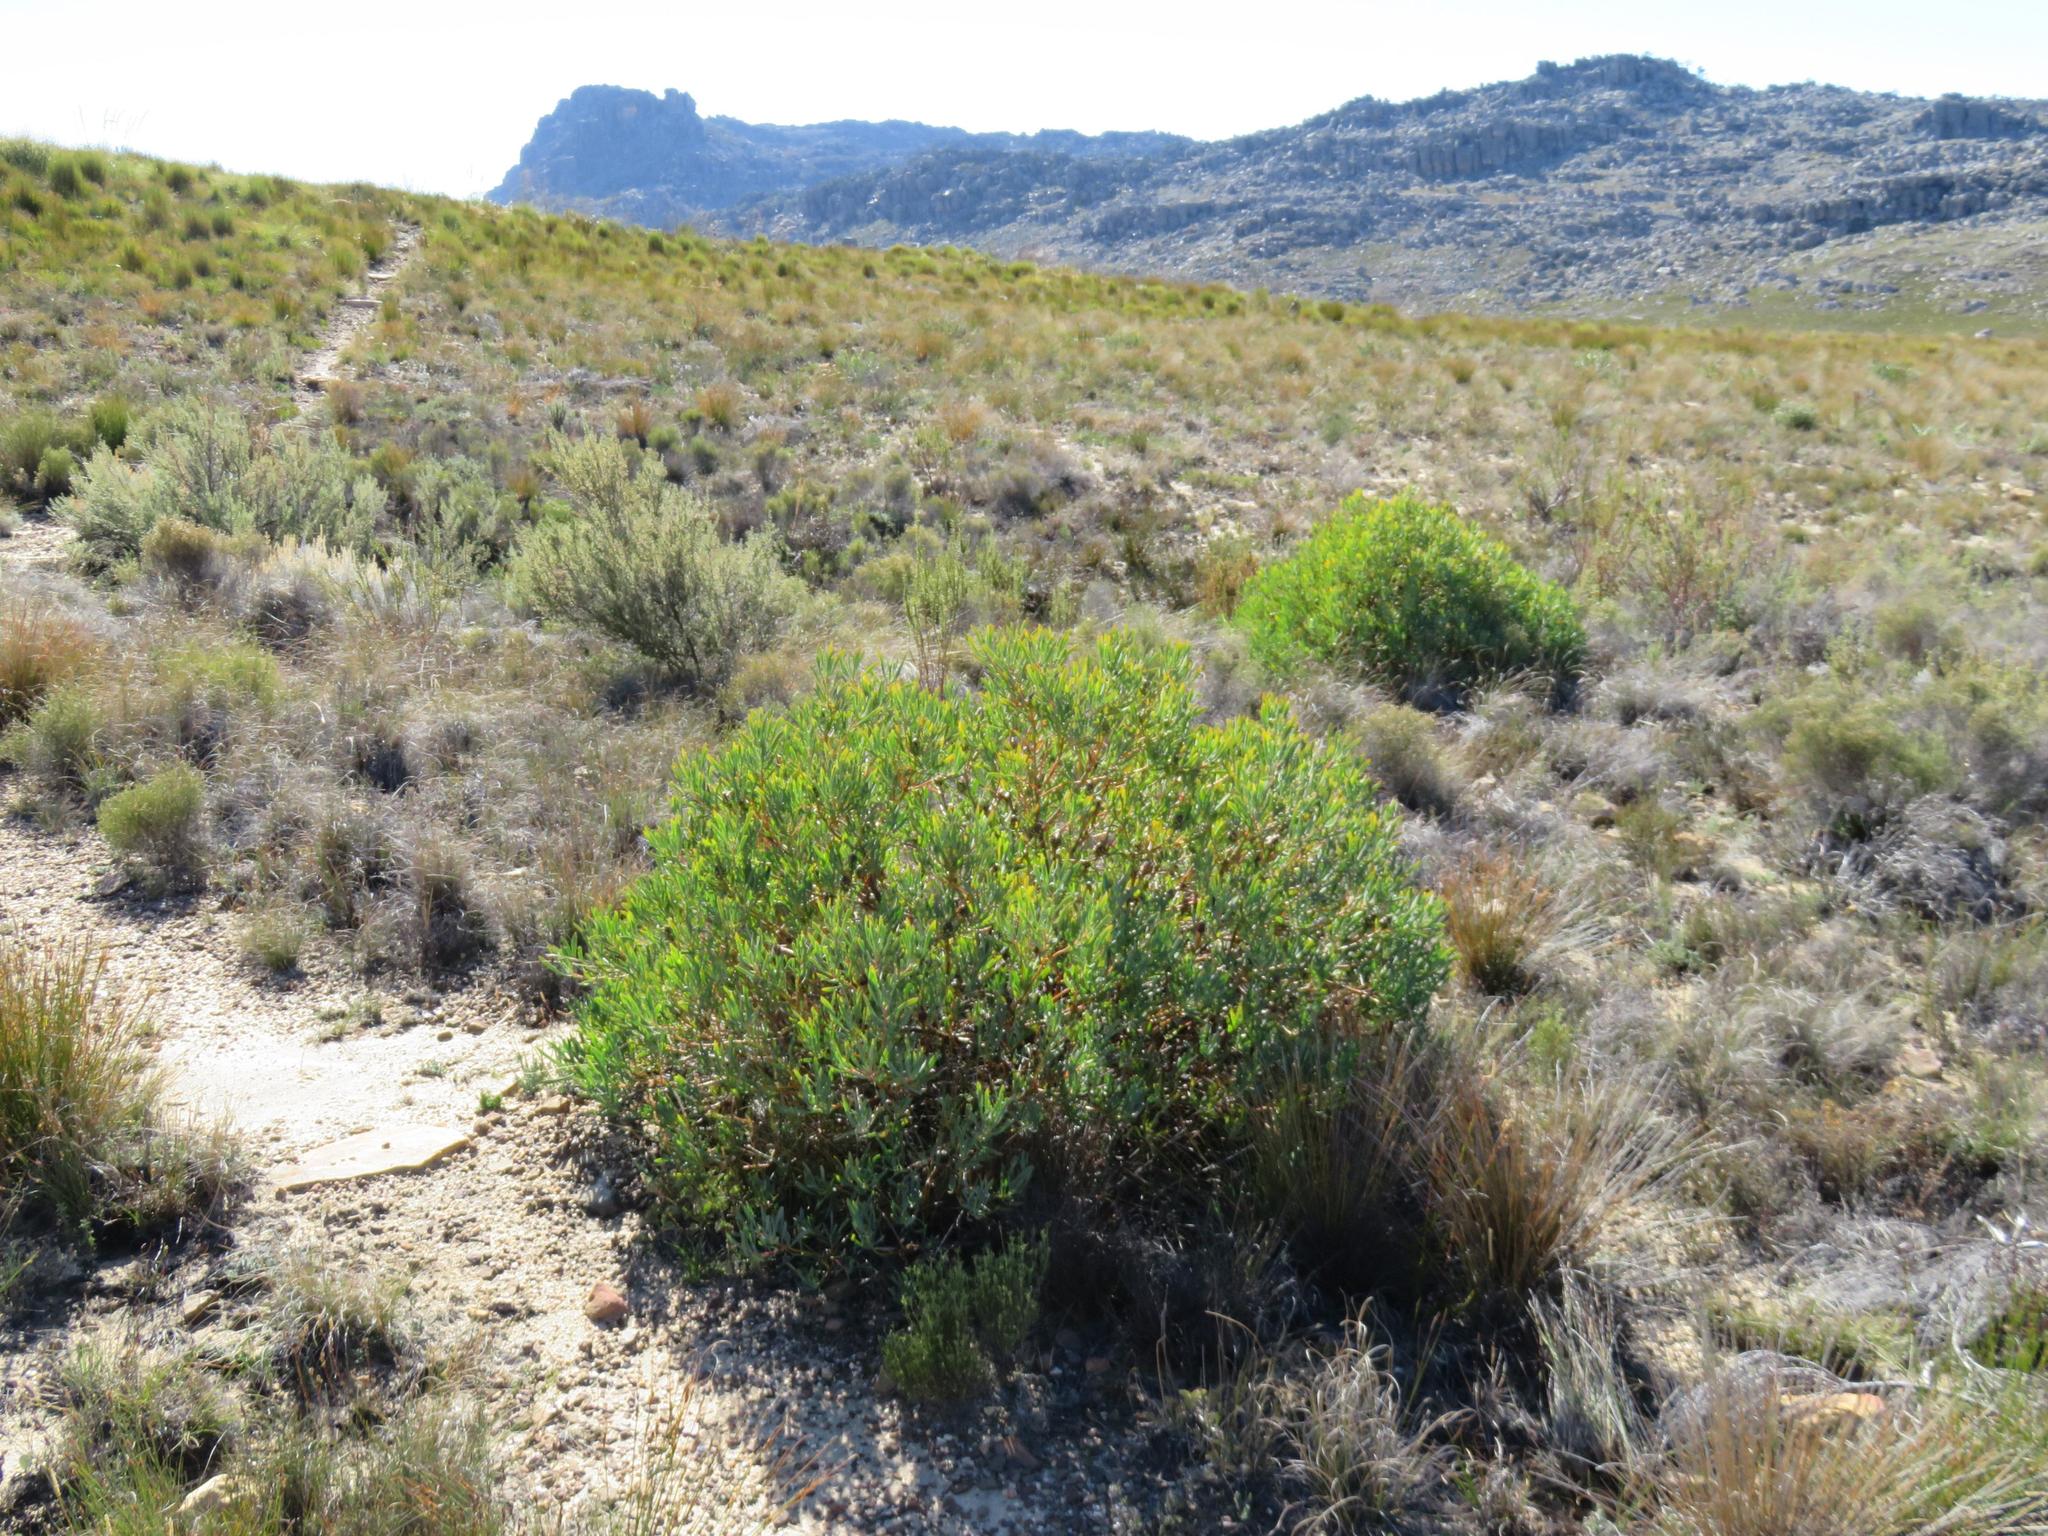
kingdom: Plantae
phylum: Tracheophyta
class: Magnoliopsida
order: Proteales
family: Proteaceae
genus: Protea
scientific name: Protea acuminata
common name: Black-rim sugarbush
